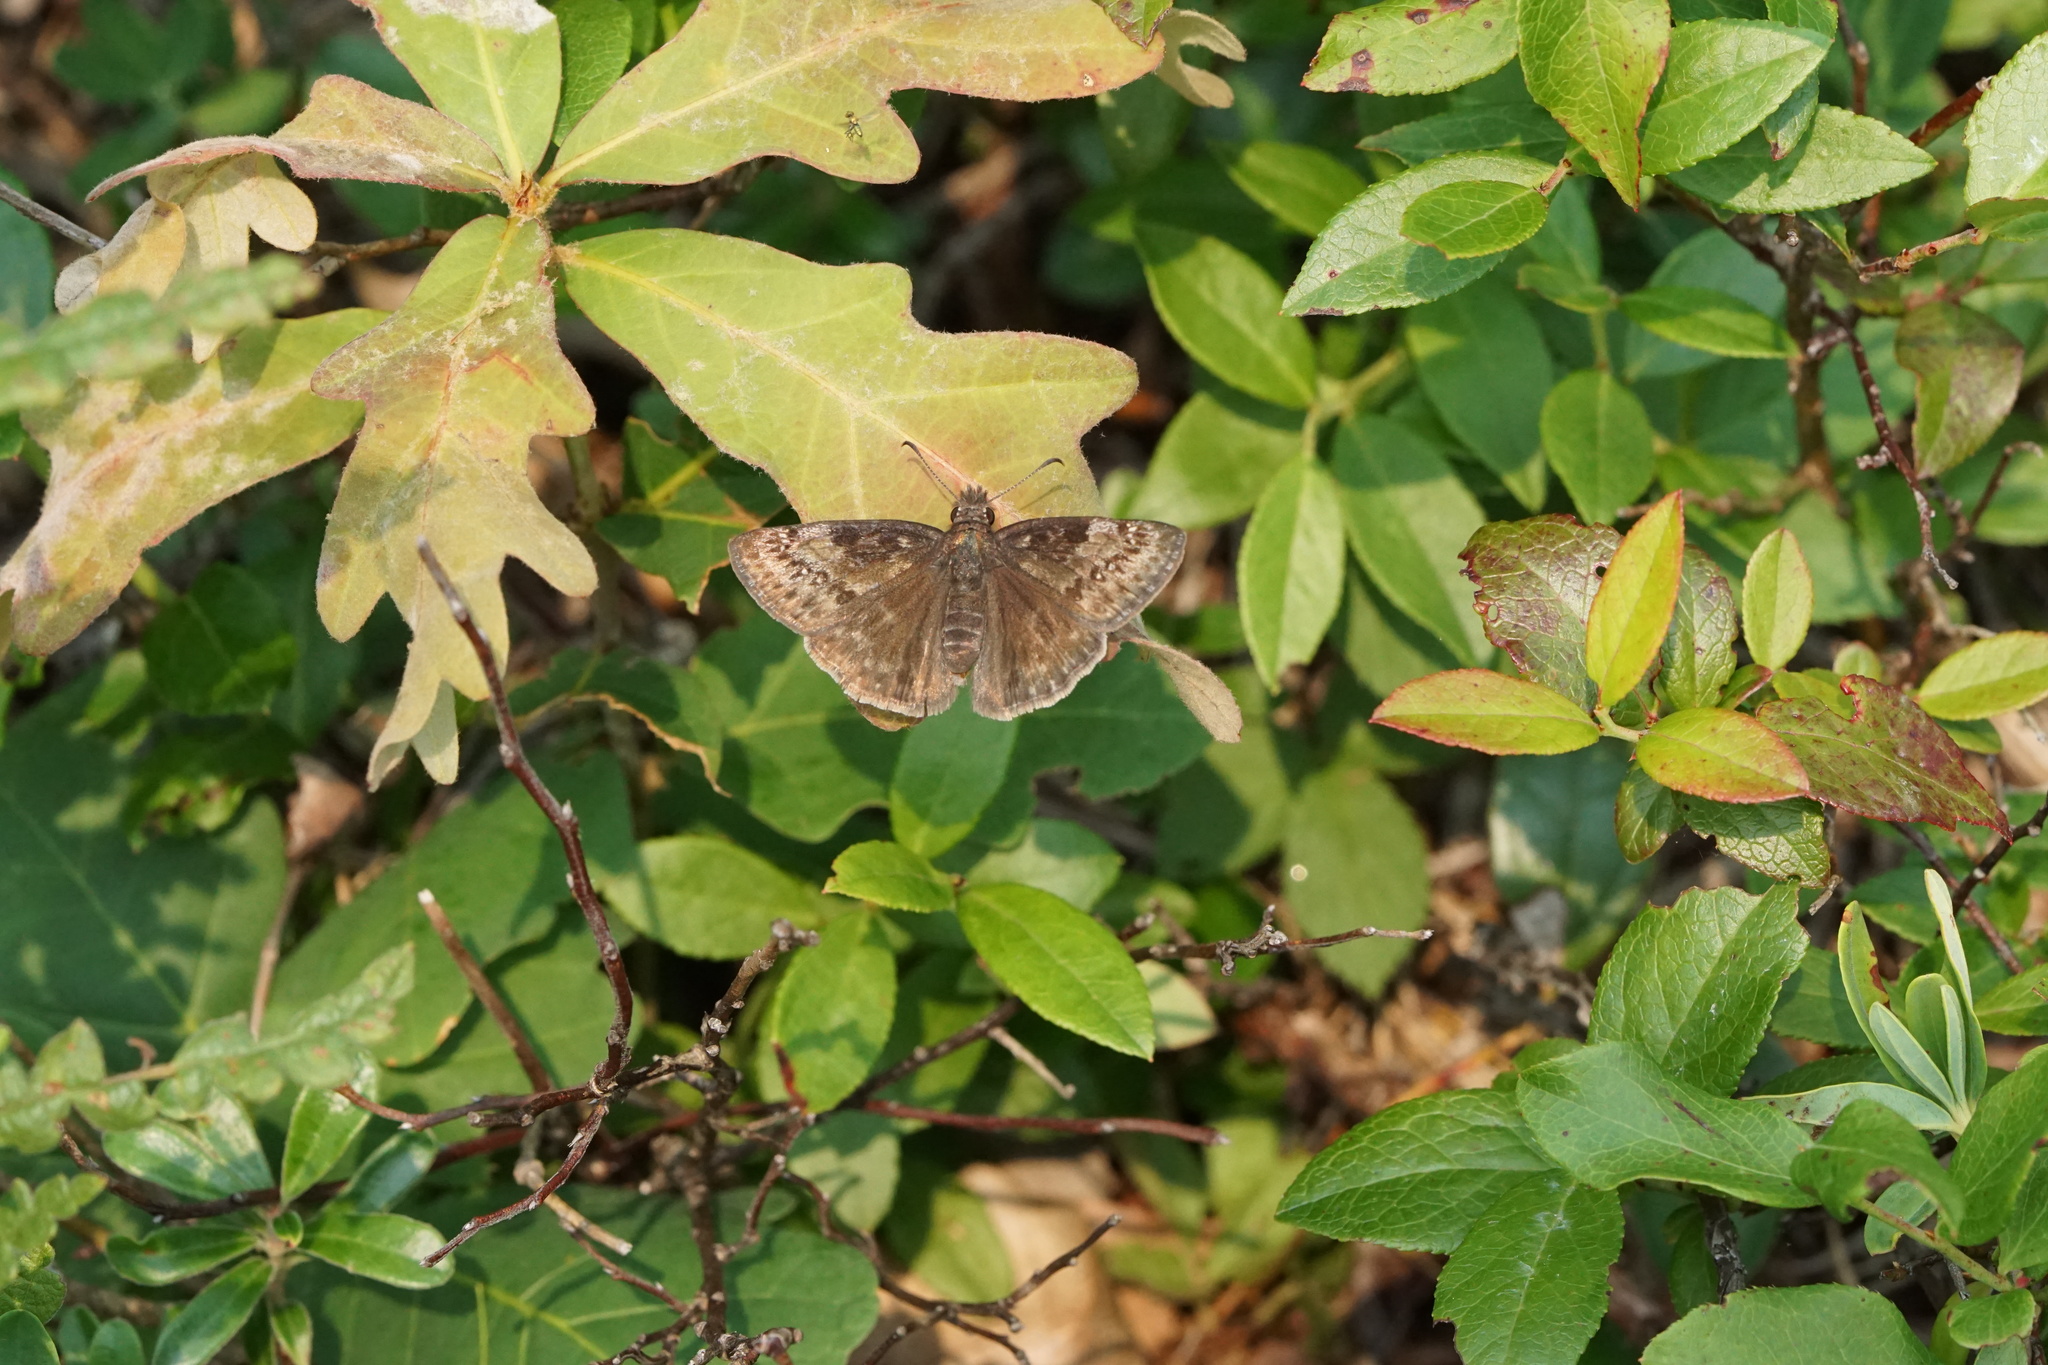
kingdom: Animalia
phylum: Arthropoda
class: Insecta
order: Lepidoptera
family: Hesperiidae
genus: Erynnis
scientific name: Erynnis baptisiae
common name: Wild indigo duskywing
